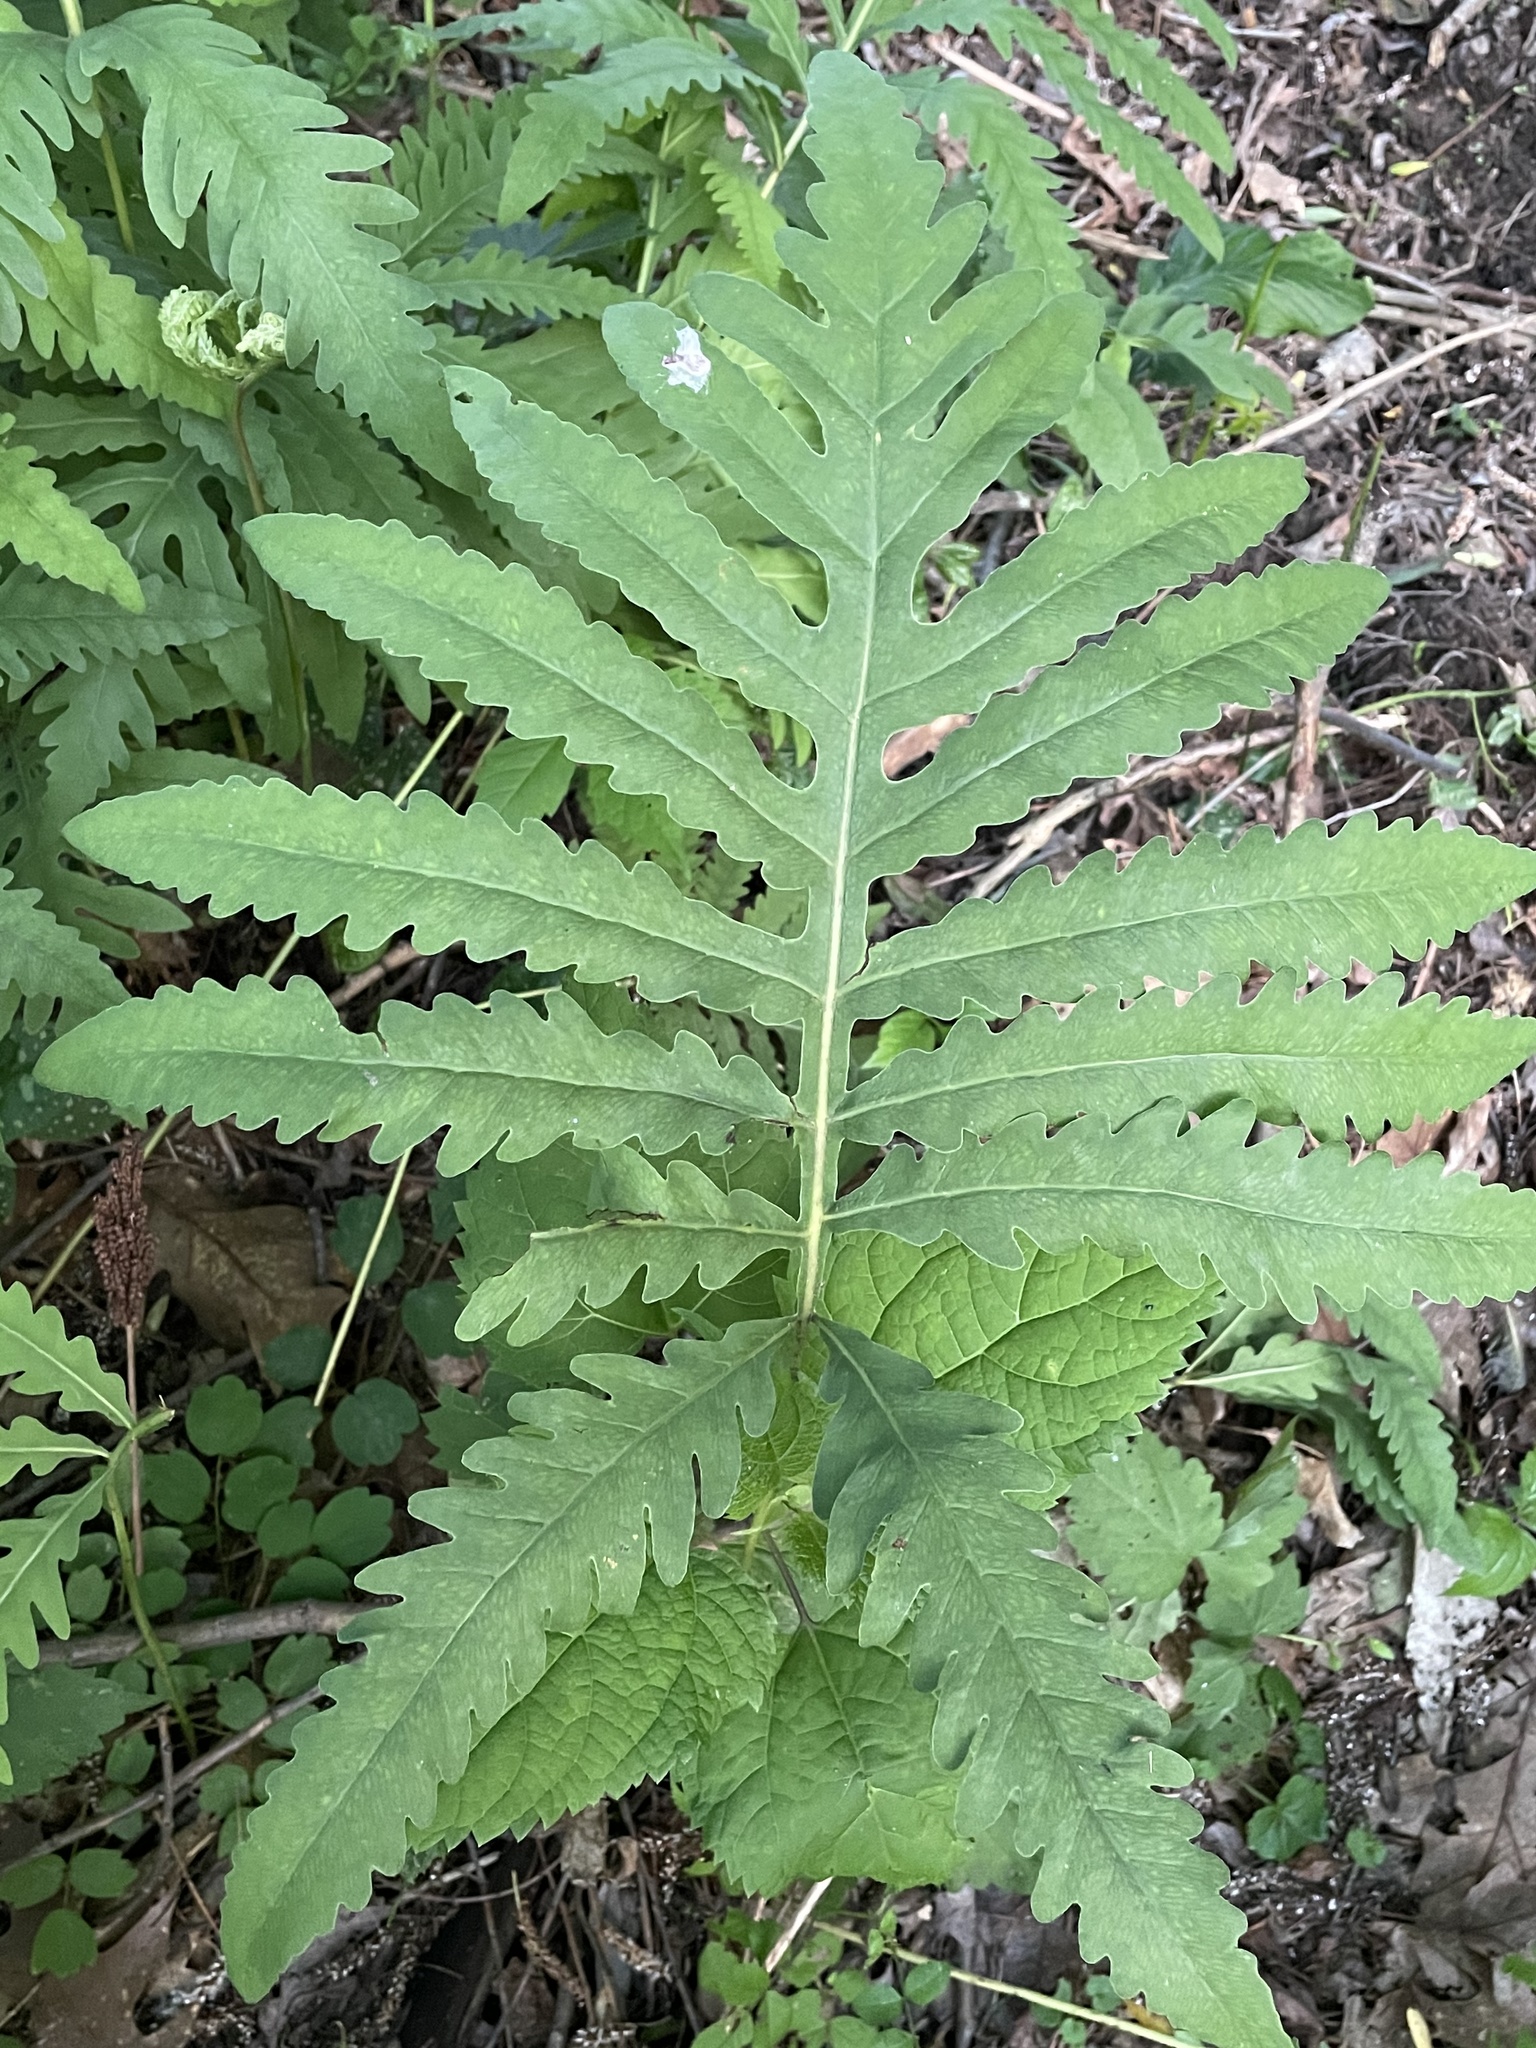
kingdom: Plantae
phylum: Tracheophyta
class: Polypodiopsida
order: Polypodiales
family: Onocleaceae
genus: Onoclea
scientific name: Onoclea sensibilis
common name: Sensitive fern
